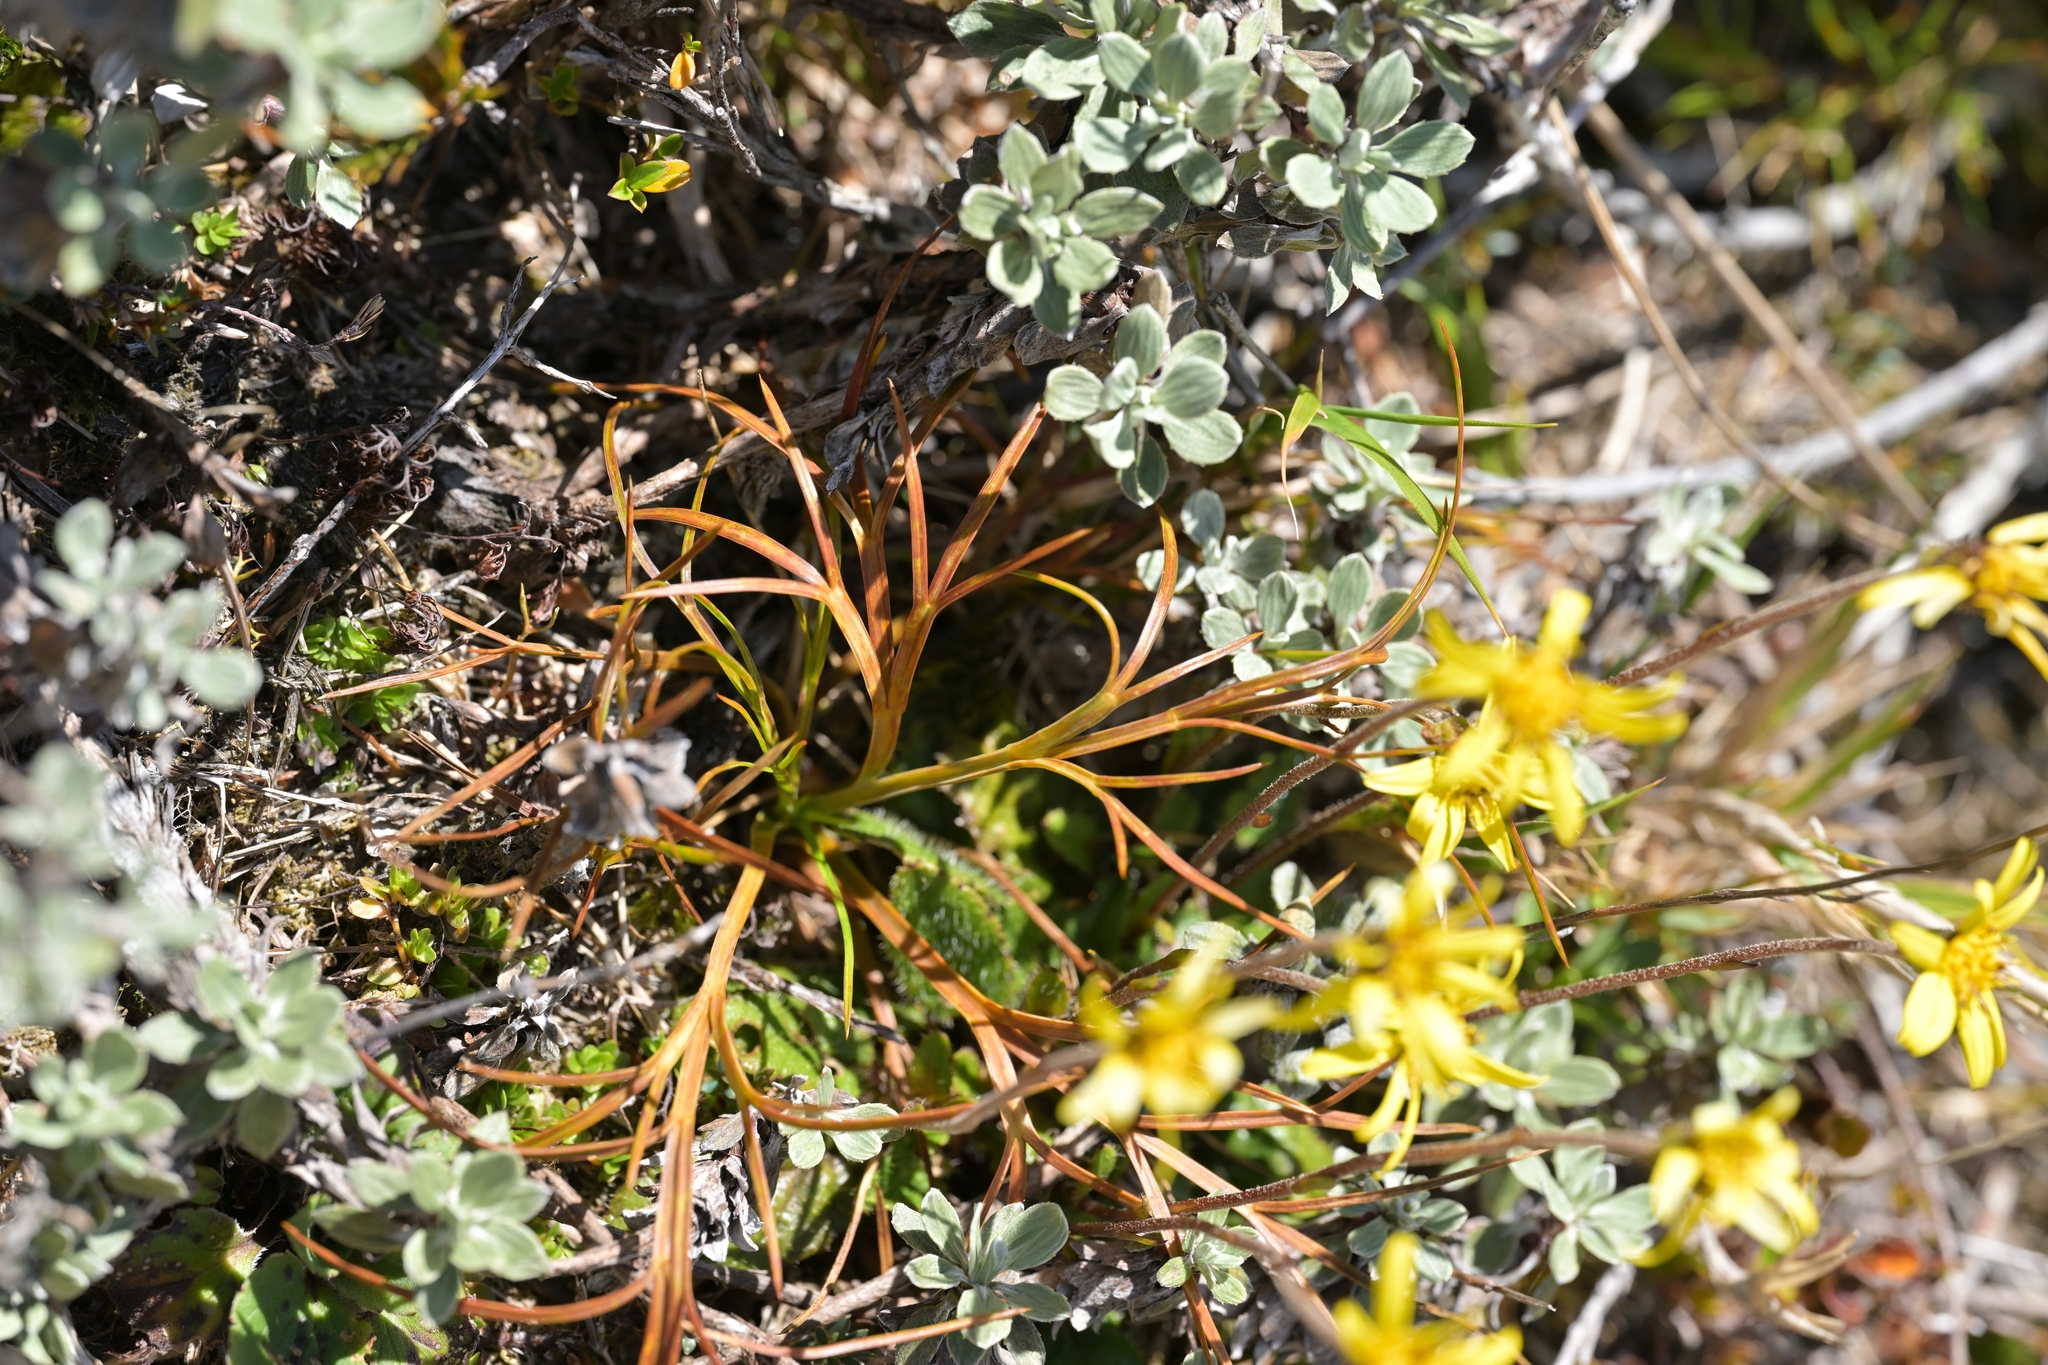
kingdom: Plantae
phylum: Tracheophyta
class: Magnoliopsida
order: Apiales
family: Apiaceae
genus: Aciphylla
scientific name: Aciphylla hookeri
